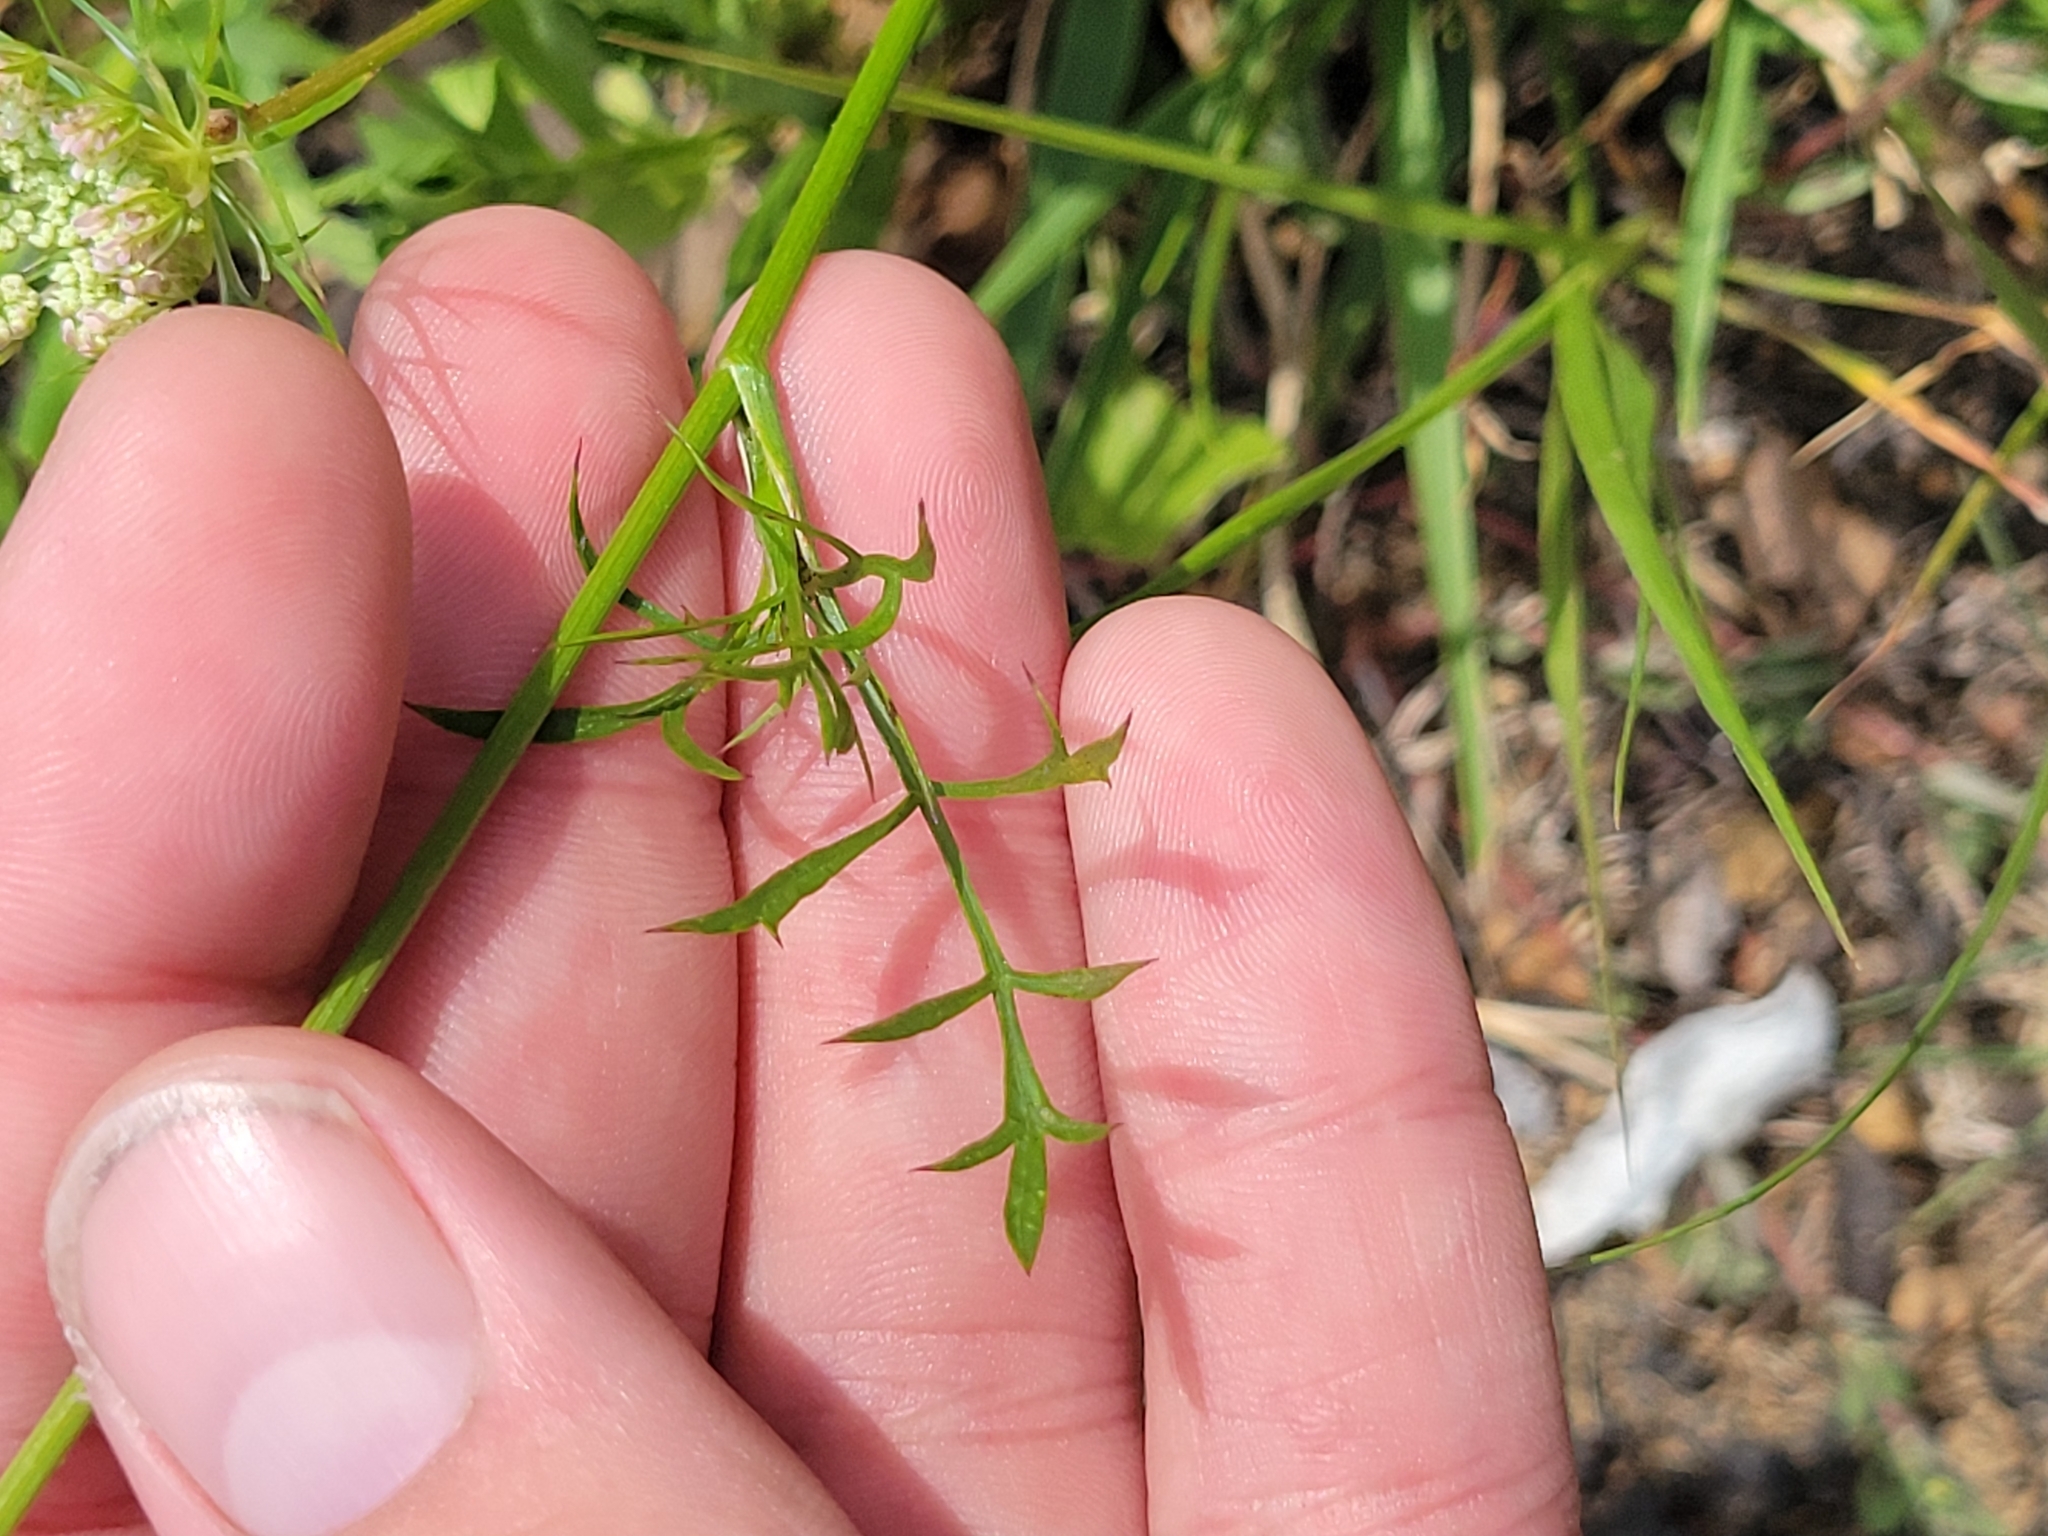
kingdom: Plantae
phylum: Tracheophyta
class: Magnoliopsida
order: Apiales
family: Apiaceae
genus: Daucus
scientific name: Daucus carota
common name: Wild carrot
